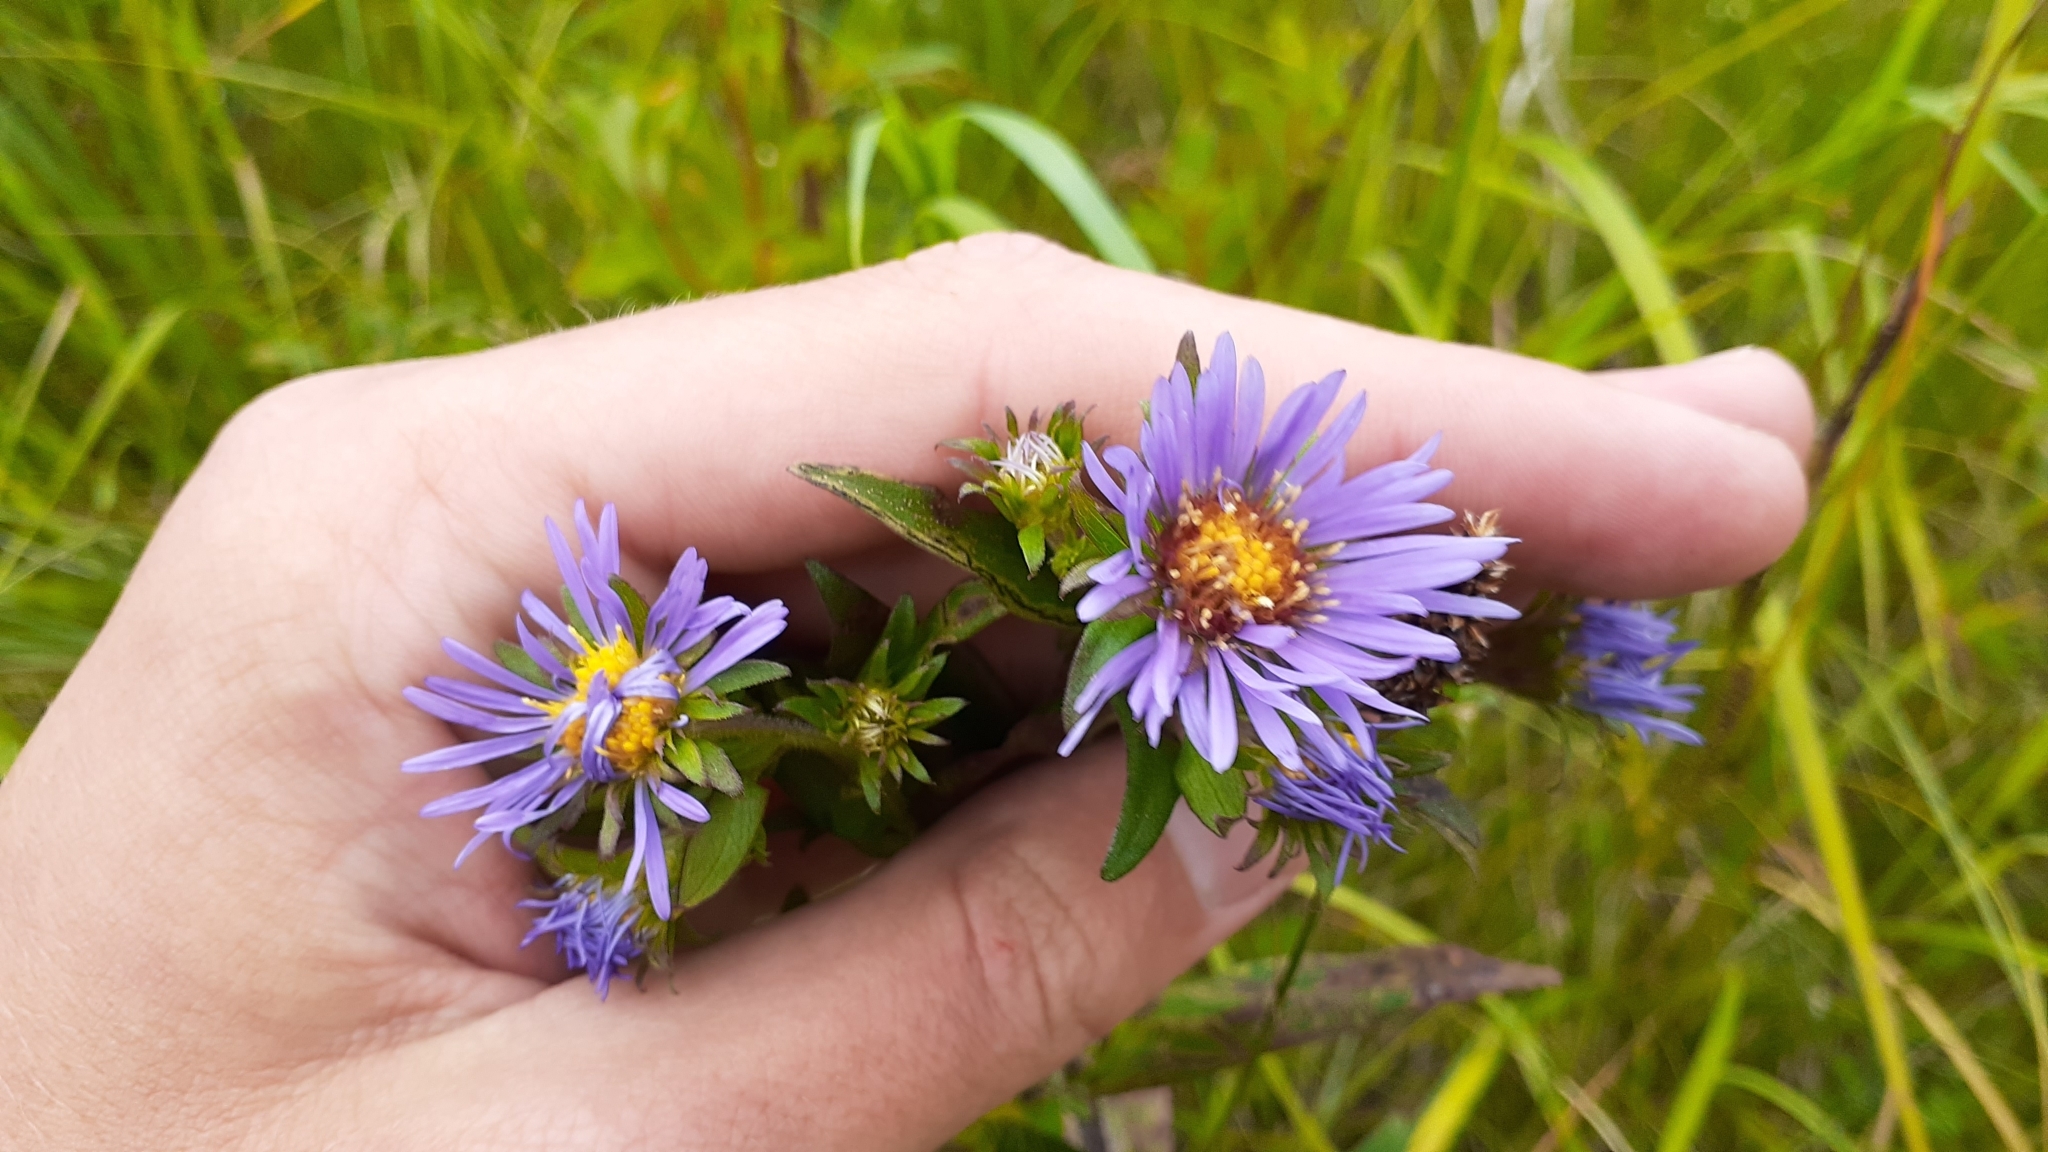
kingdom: Plantae
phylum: Tracheophyta
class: Magnoliopsida
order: Asterales
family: Asteraceae
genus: Symphyotrichum
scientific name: Symphyotrichum puniceum
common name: Bog aster
